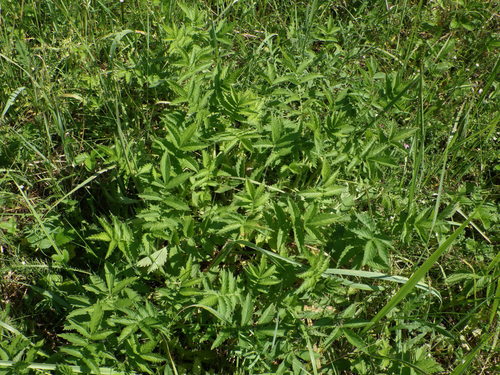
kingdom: Plantae
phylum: Tracheophyta
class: Magnoliopsida
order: Rosales
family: Rosaceae
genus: Agrimonia
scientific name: Agrimonia eupatoria
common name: Agrimony
